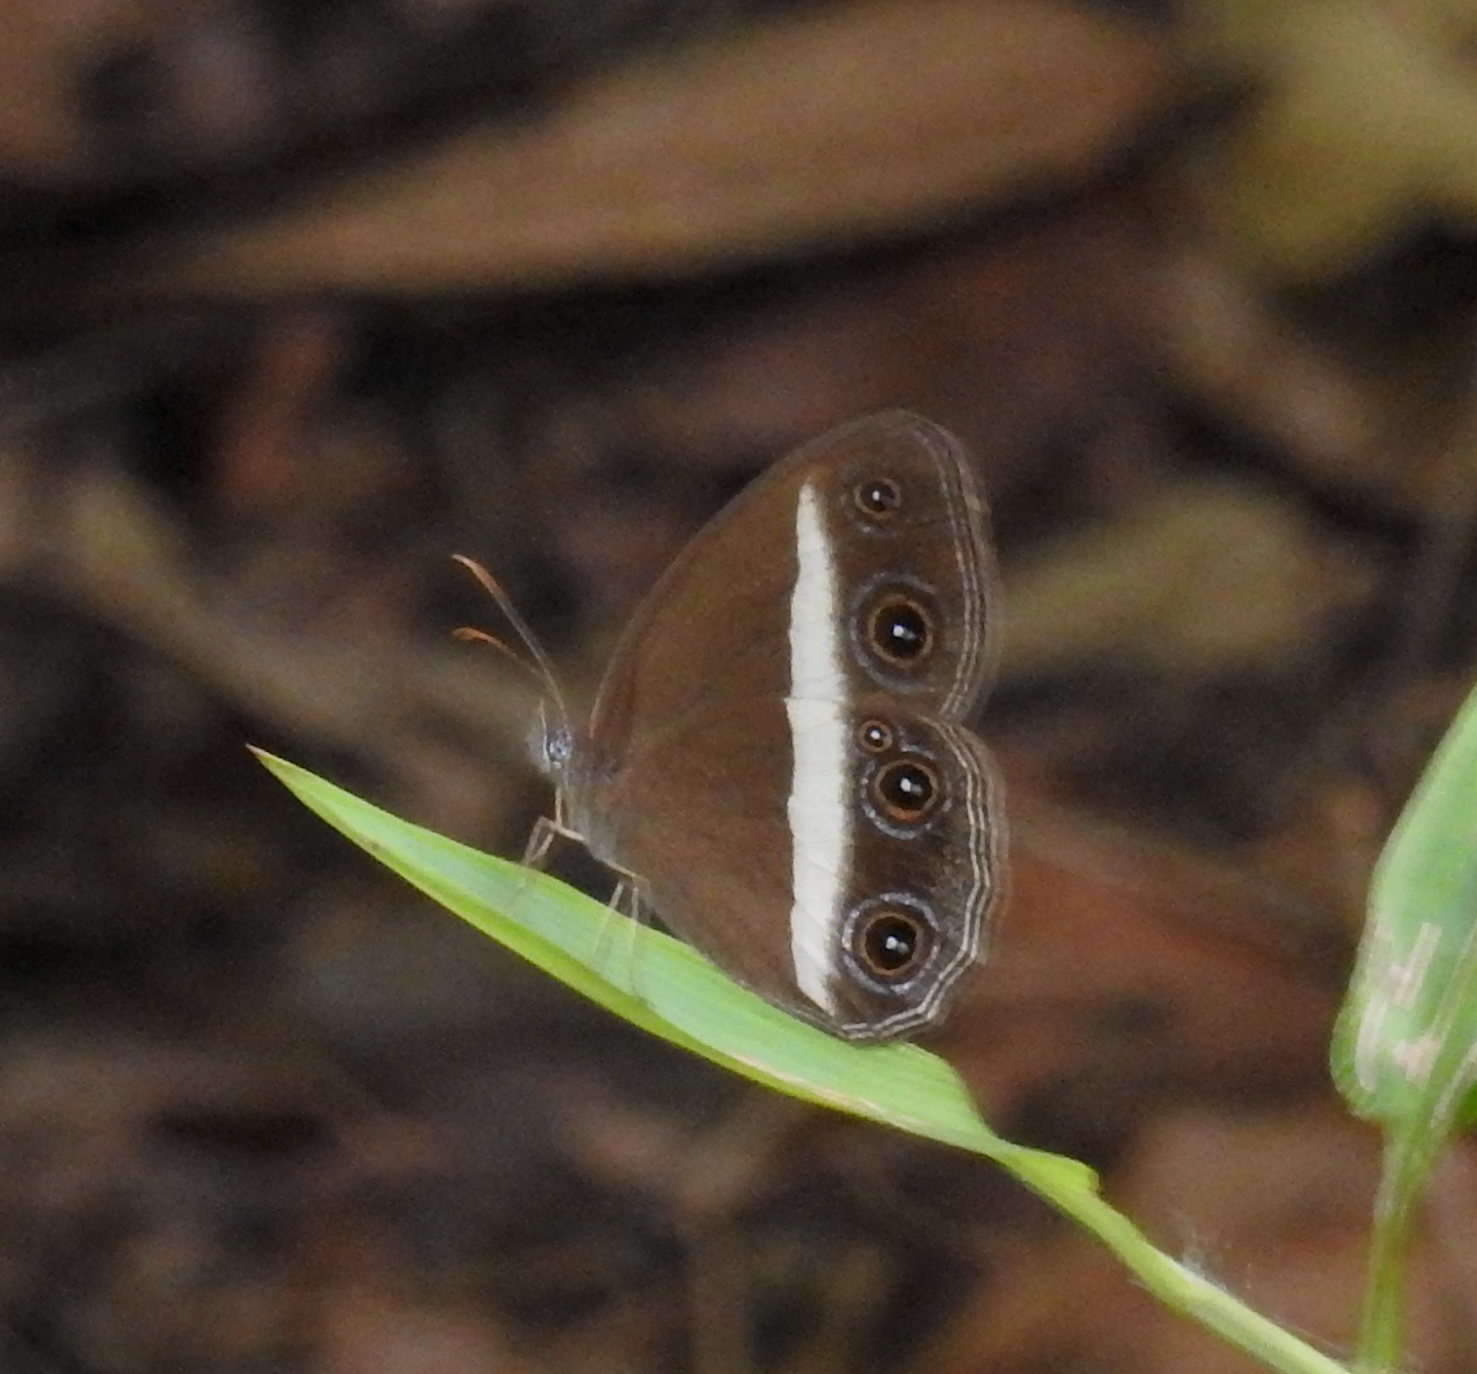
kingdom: Animalia
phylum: Arthropoda
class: Insecta
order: Lepidoptera
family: Nymphalidae
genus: Orsotriaena
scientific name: Orsotriaena medus
